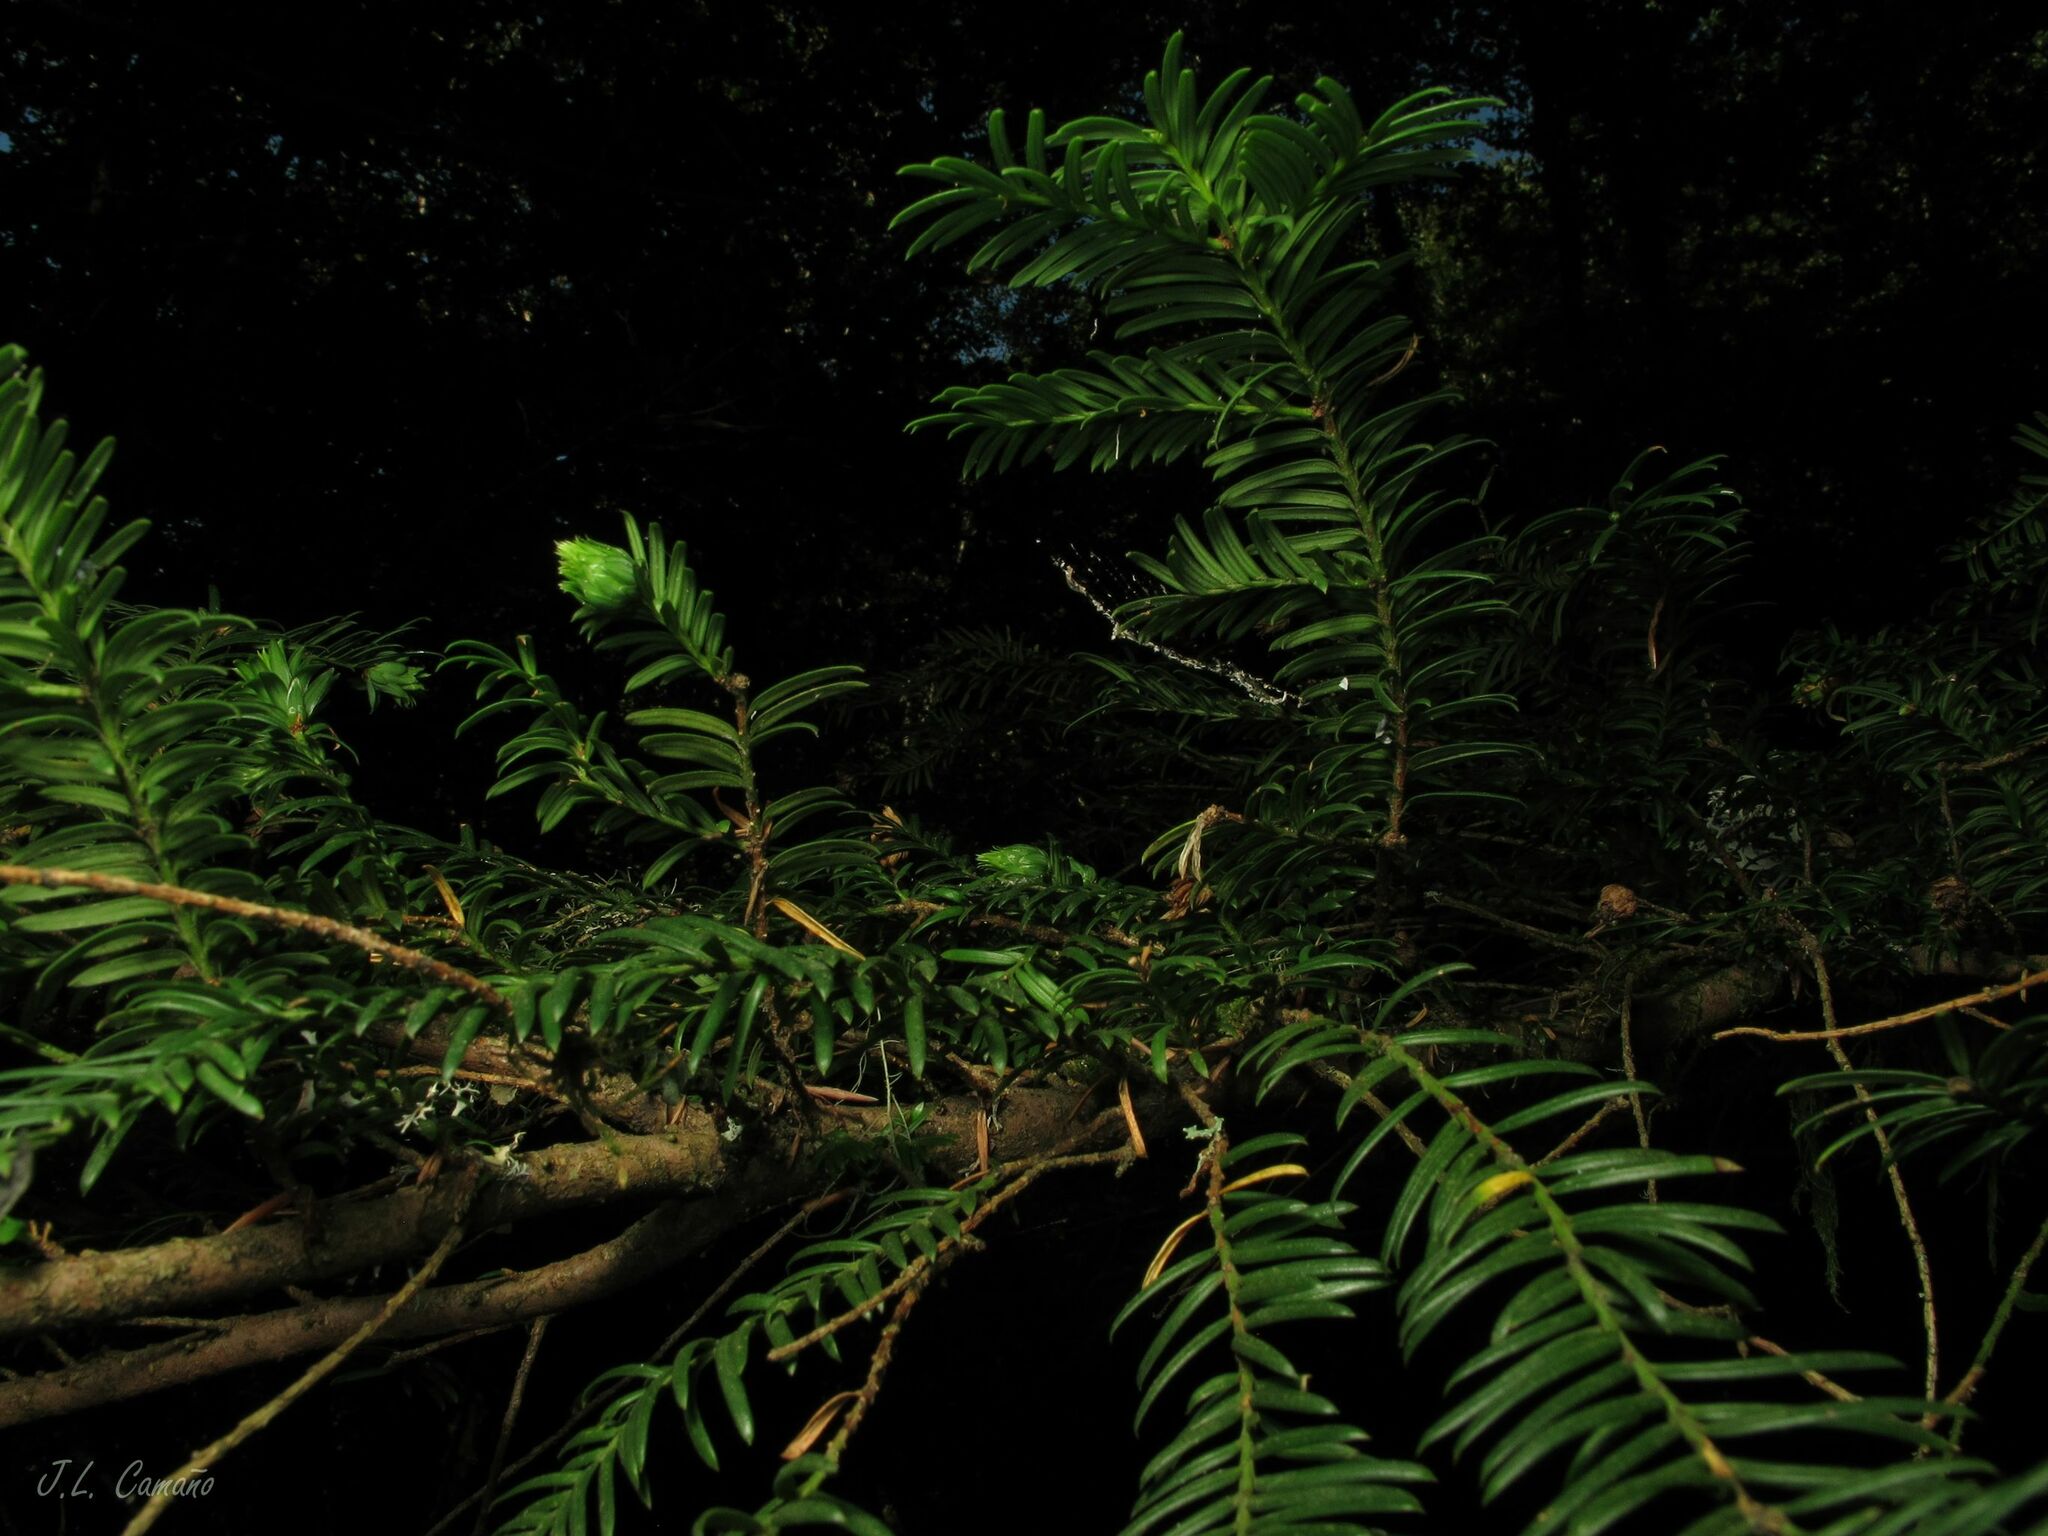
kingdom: Plantae
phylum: Tracheophyta
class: Pinopsida
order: Pinales
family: Taxaceae
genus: Taxus
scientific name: Taxus baccata
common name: Yew
